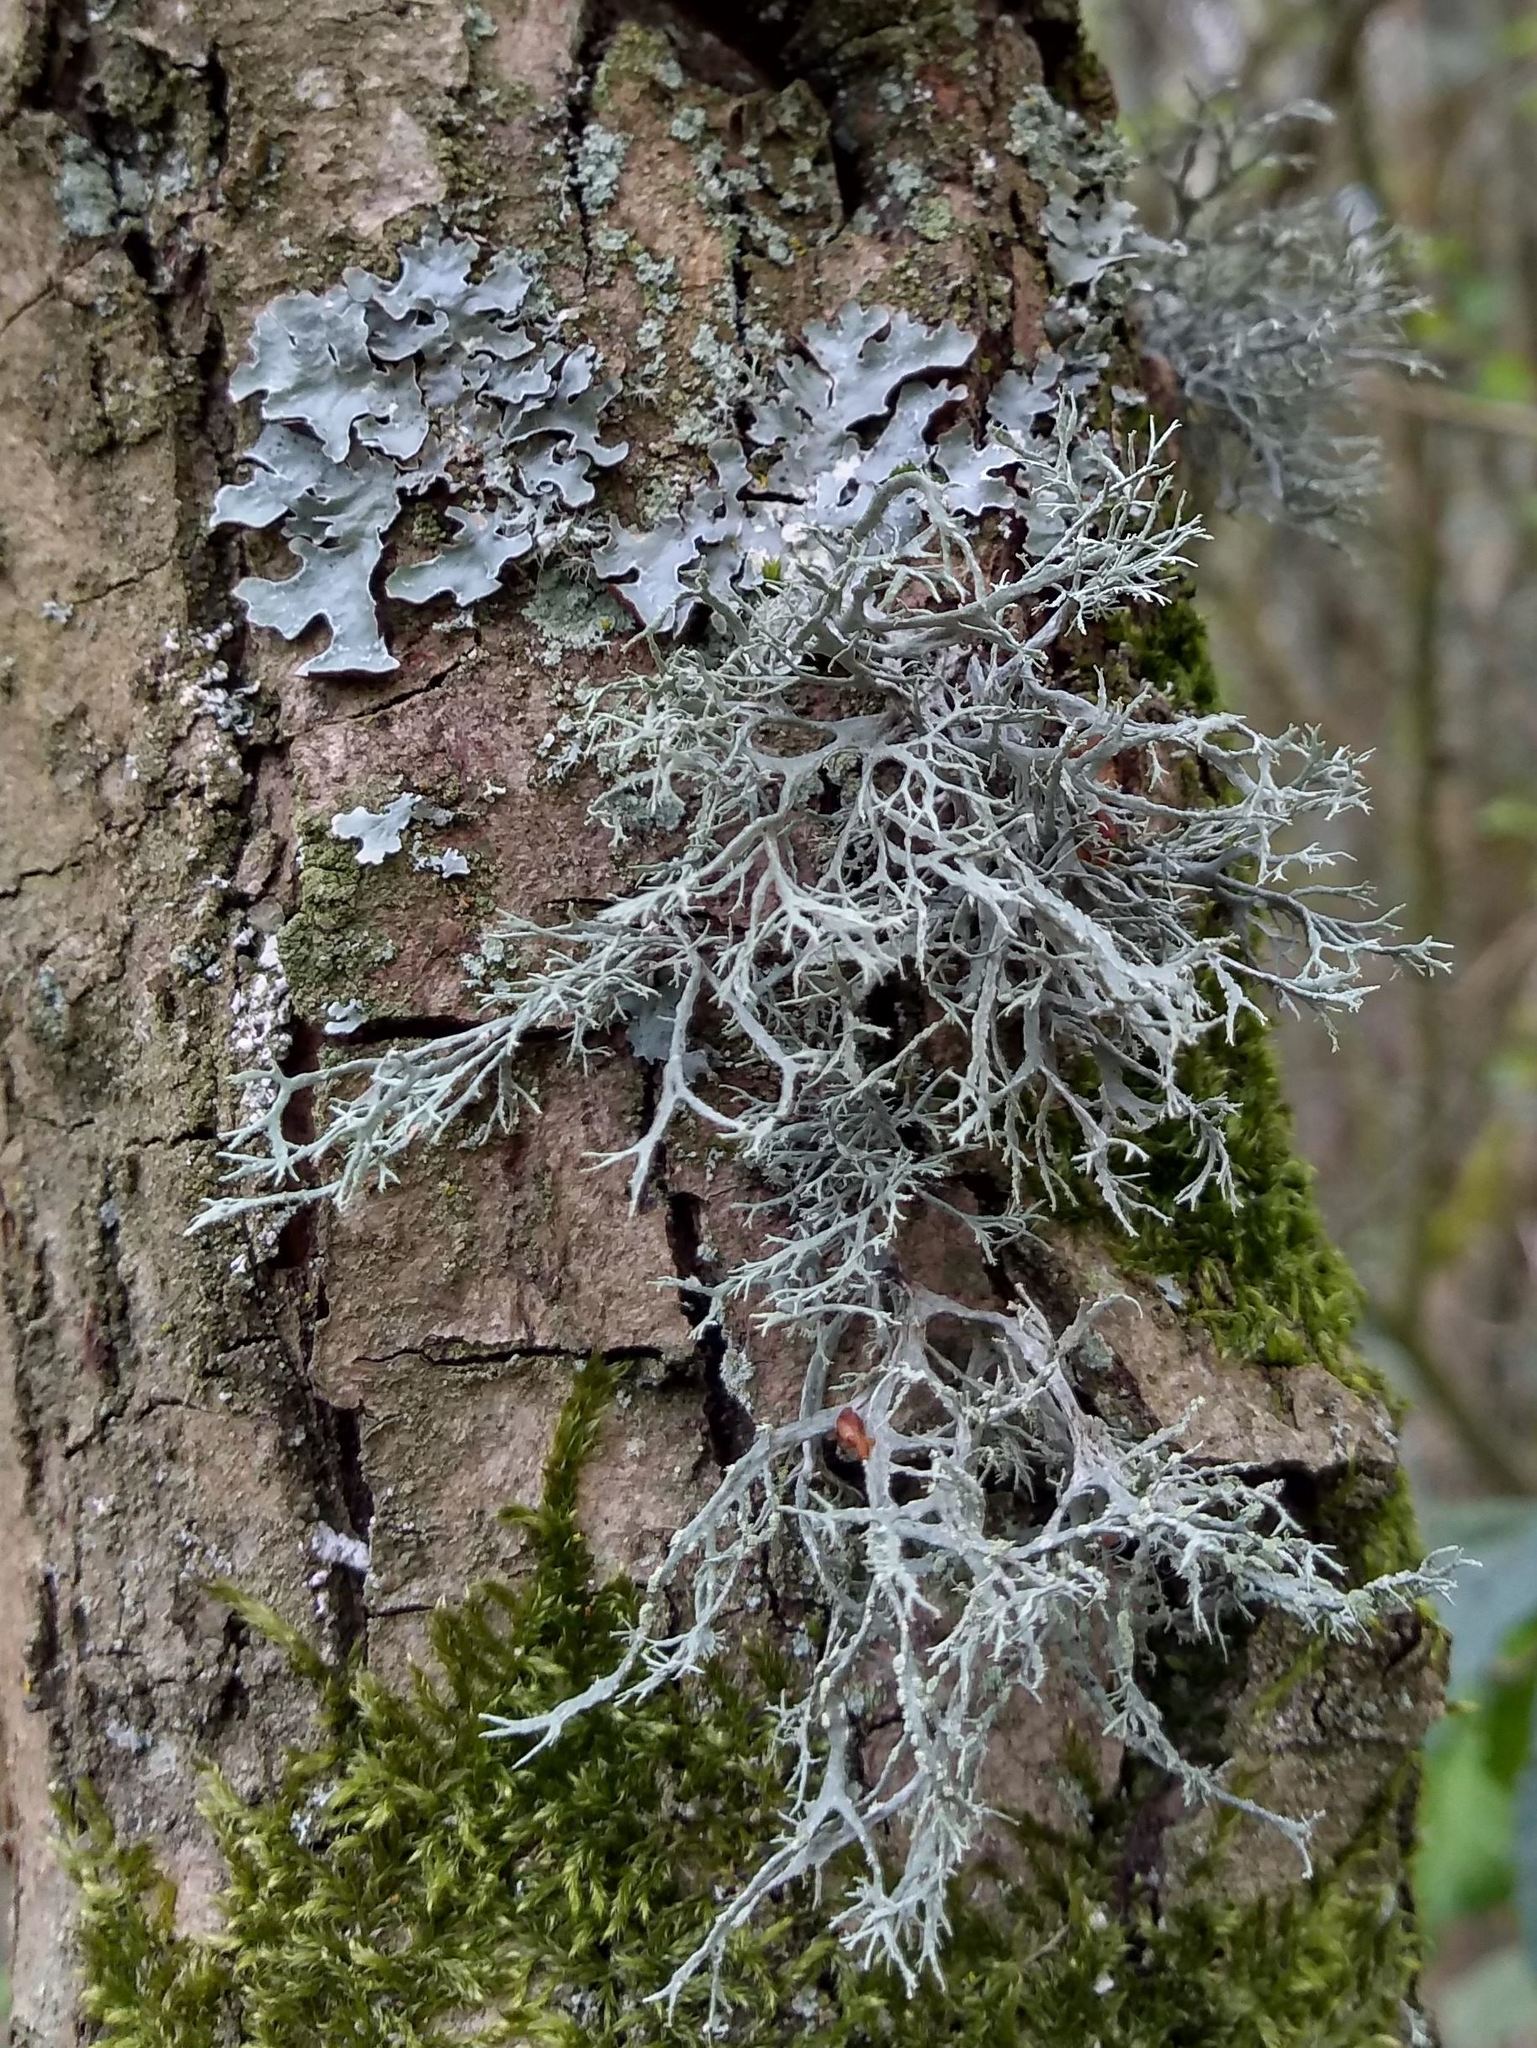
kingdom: Fungi
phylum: Ascomycota
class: Lecanoromycetes
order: Lecanorales
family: Ramalinaceae
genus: Ramalina
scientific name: Ramalina farinacea
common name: Farinose cartilage lichen
